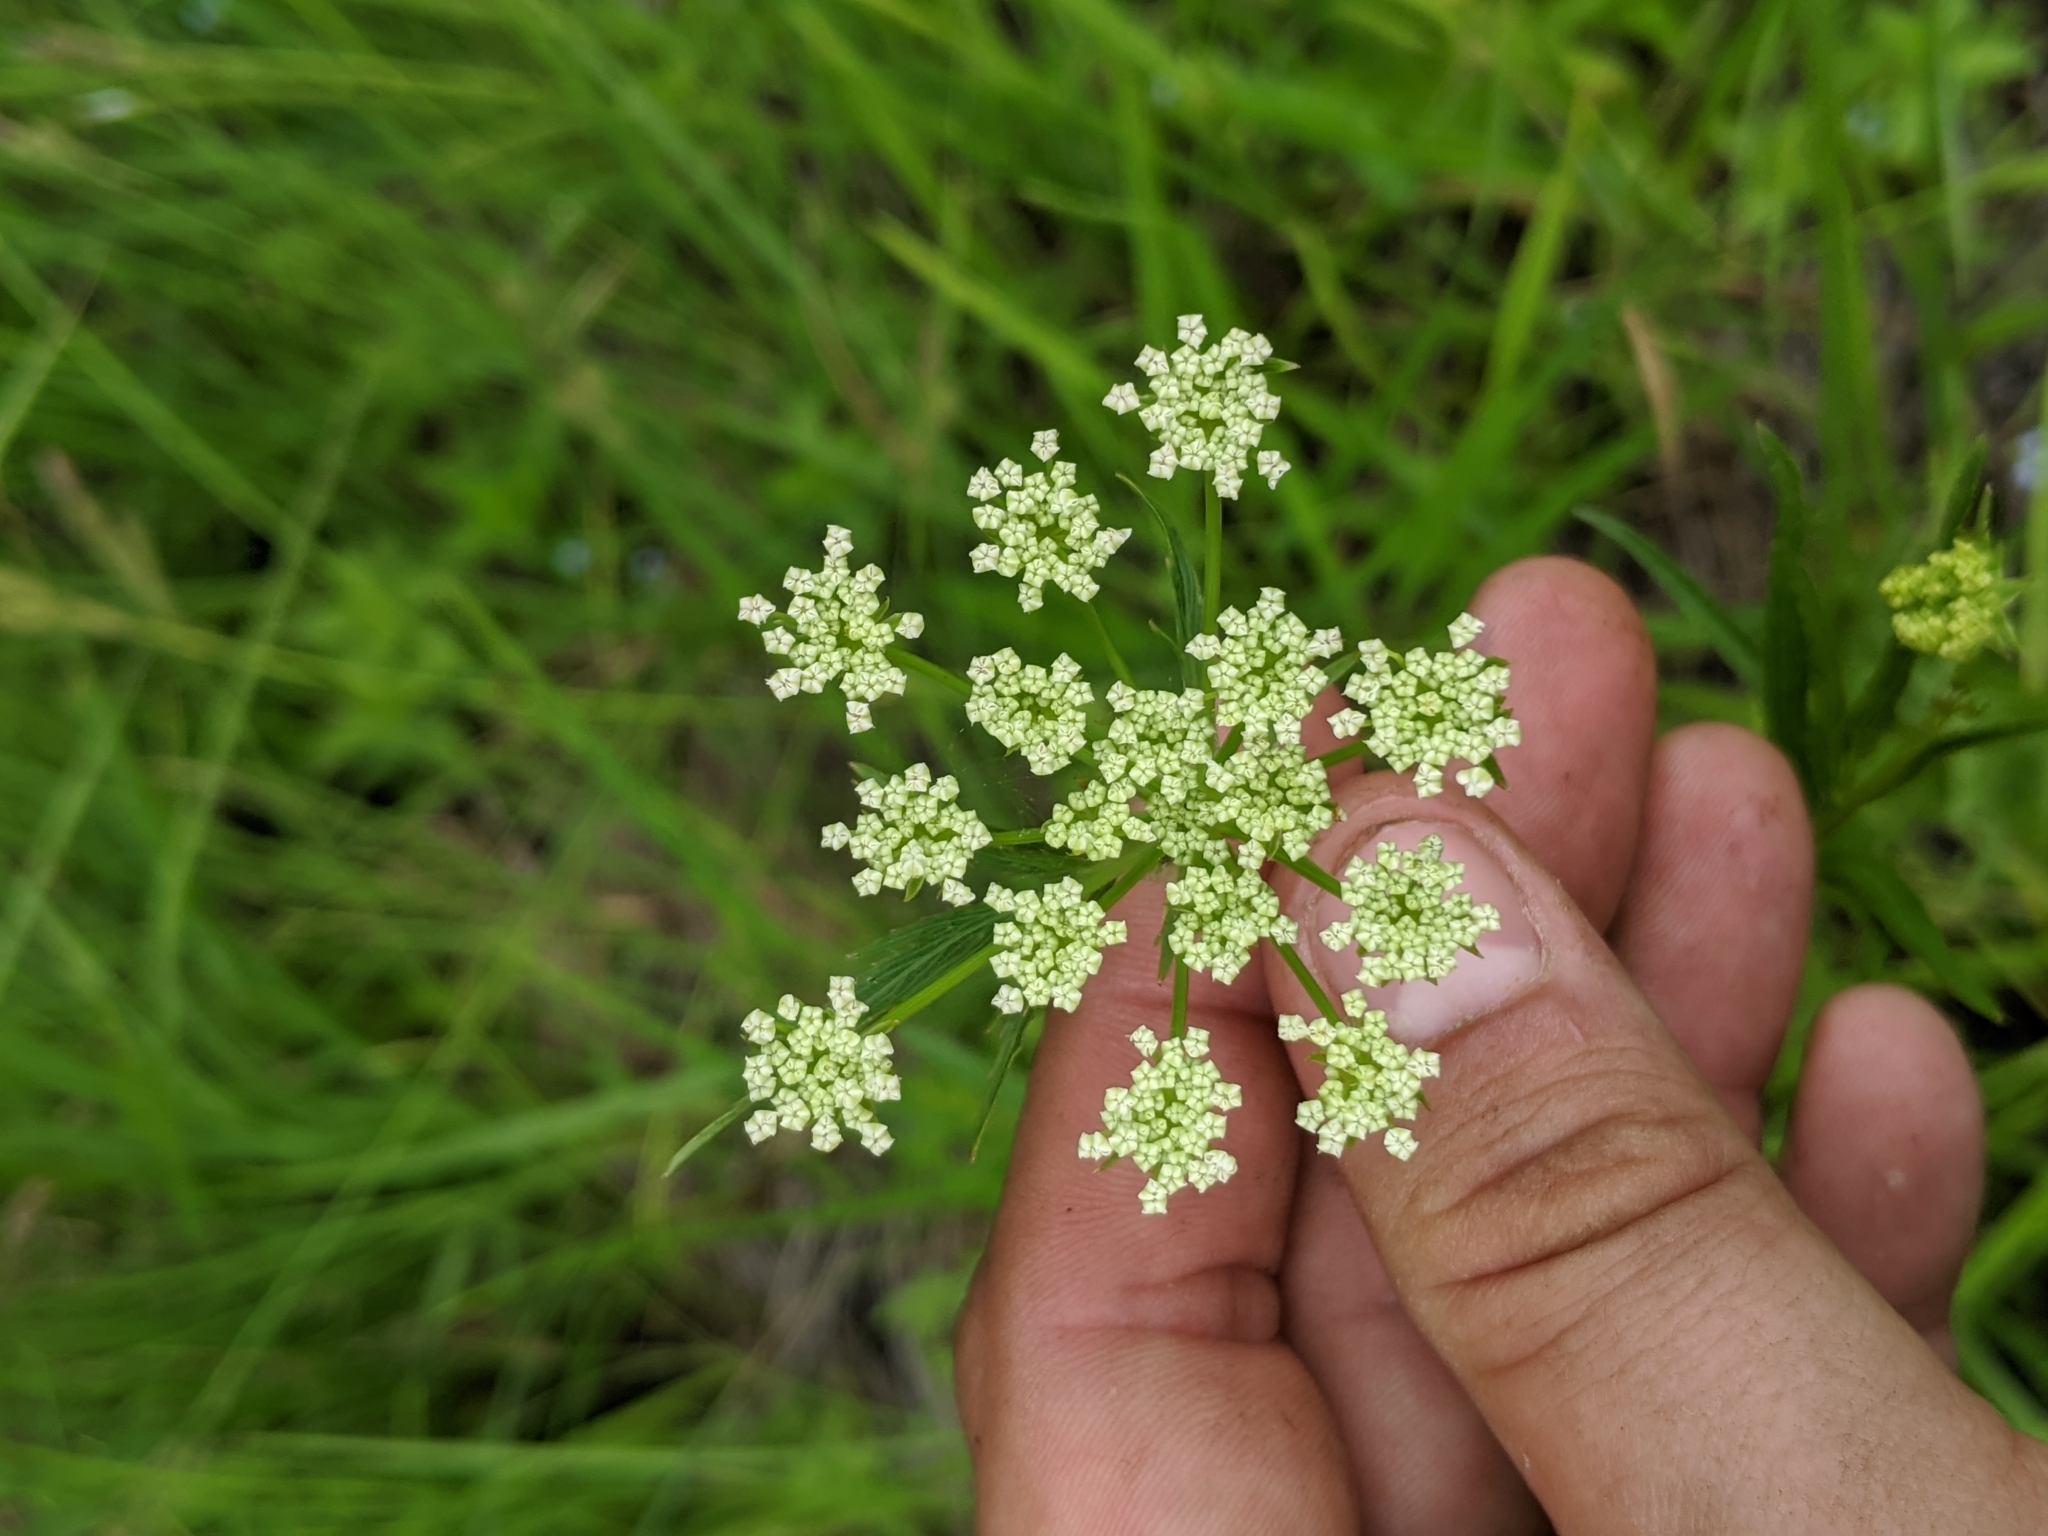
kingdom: Plantae
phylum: Tracheophyta
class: Magnoliopsida
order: Apiales
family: Apiaceae
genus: Sium
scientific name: Sium suave
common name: Hemlock water-parsnip
